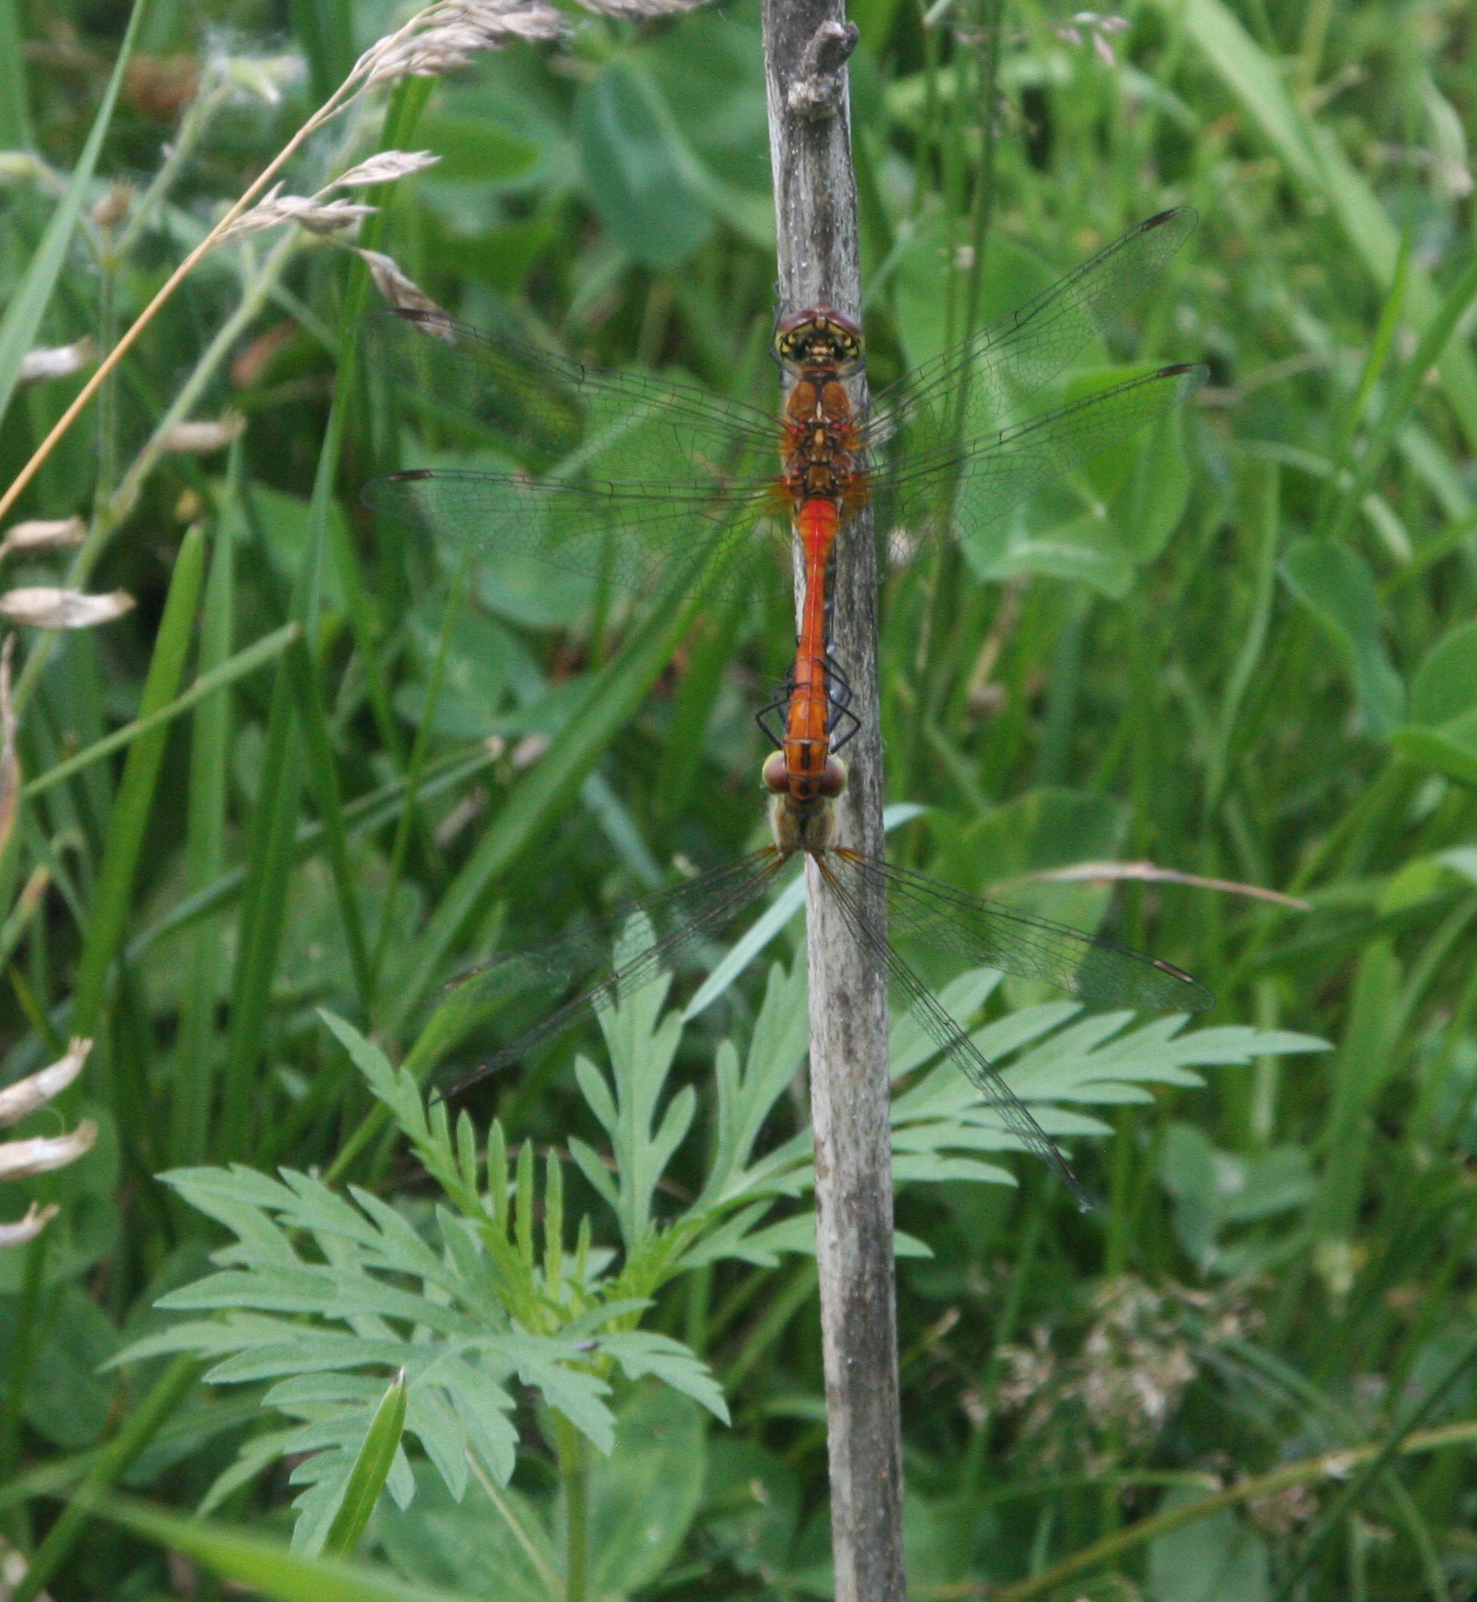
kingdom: Plantae
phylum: Tracheophyta
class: Magnoliopsida
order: Asterales
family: Asteraceae
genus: Ambrosia
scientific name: Ambrosia artemisiifolia
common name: Annual ragweed
